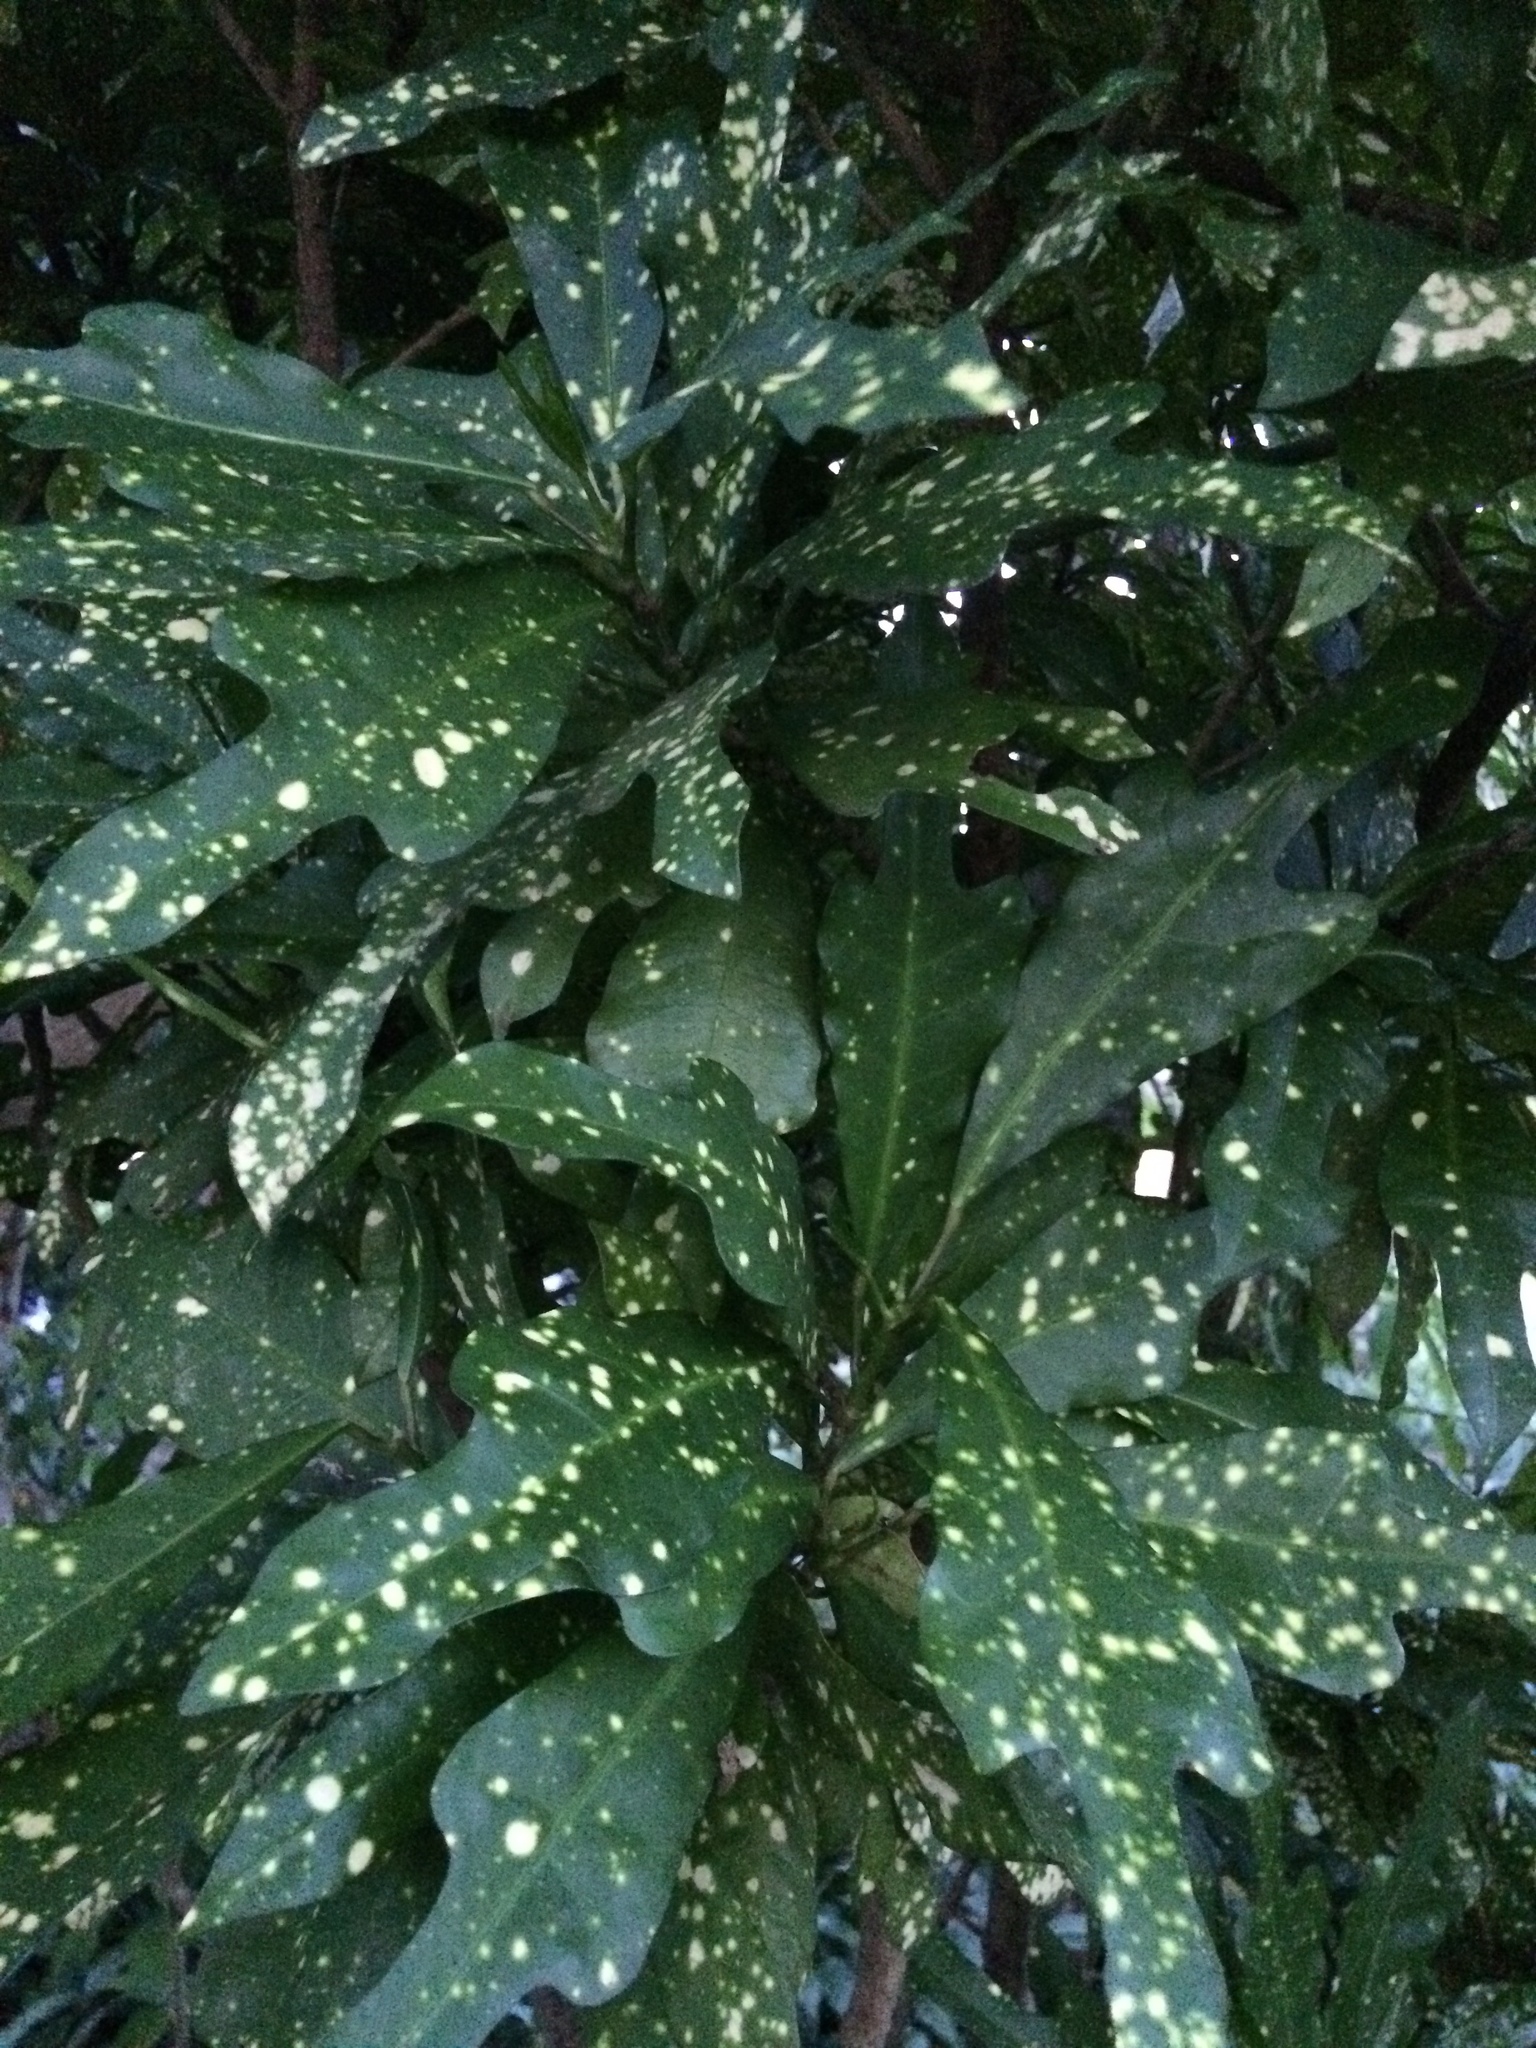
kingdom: Plantae
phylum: Tracheophyta
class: Magnoliopsida
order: Malpighiales
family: Euphorbiaceae
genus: Codiaeum
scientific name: Codiaeum variegatum
